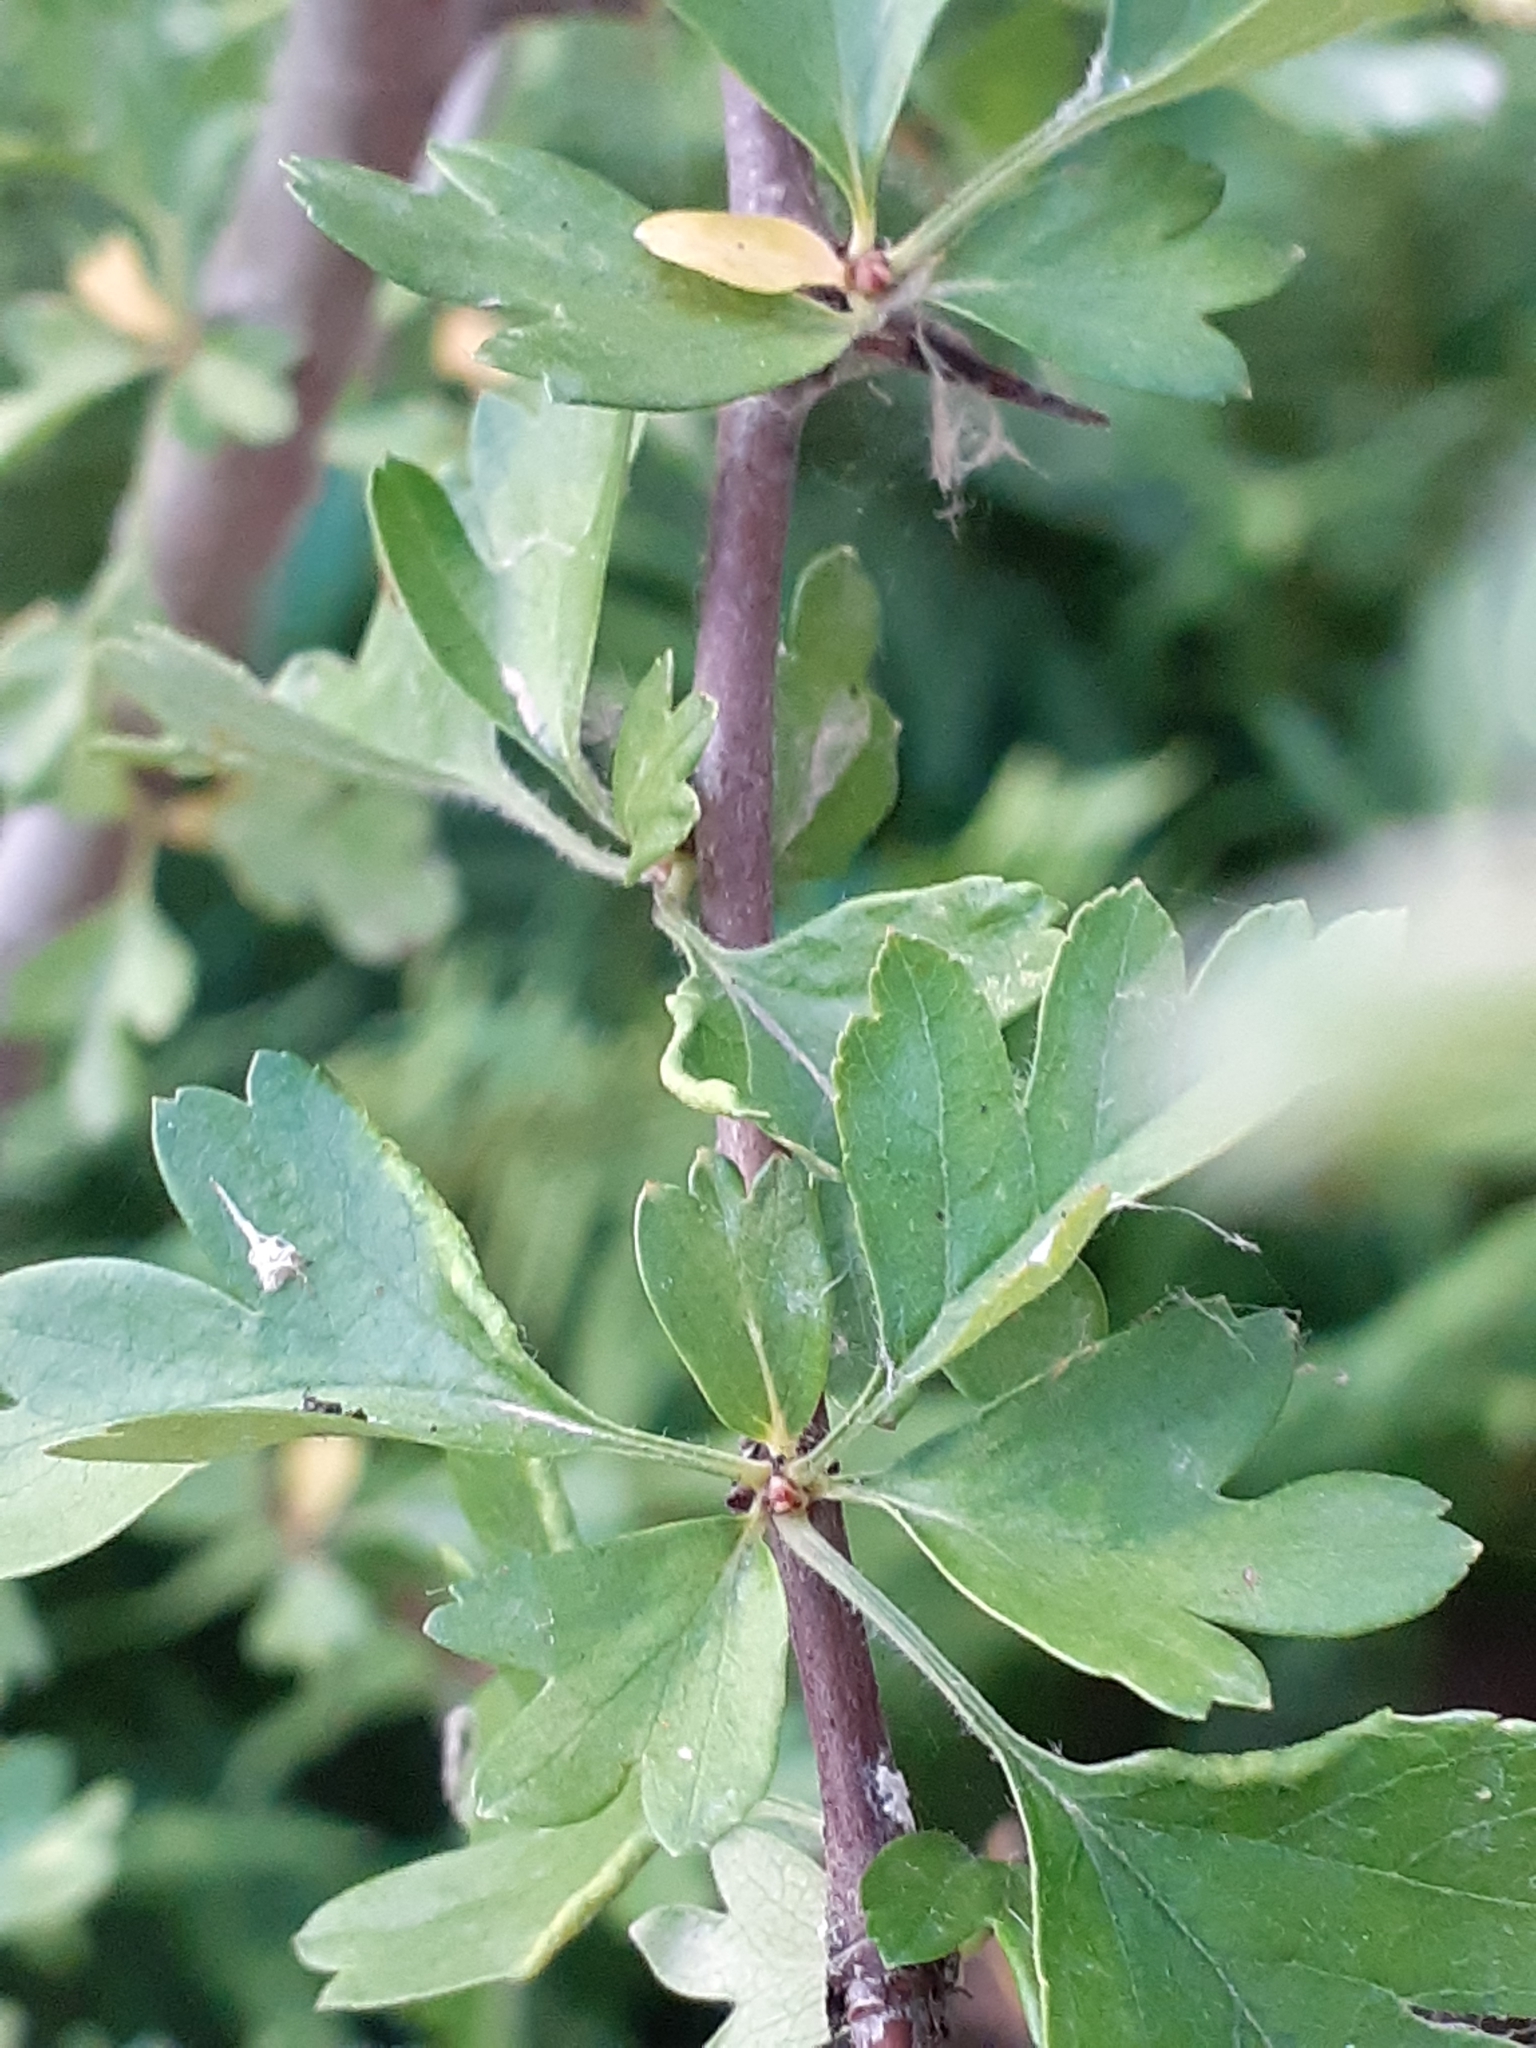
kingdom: Animalia
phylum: Arthropoda
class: Arachnida
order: Trombidiformes
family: Eriophyidae
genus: Phyllocoptes
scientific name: Phyllocoptes goniothorax
